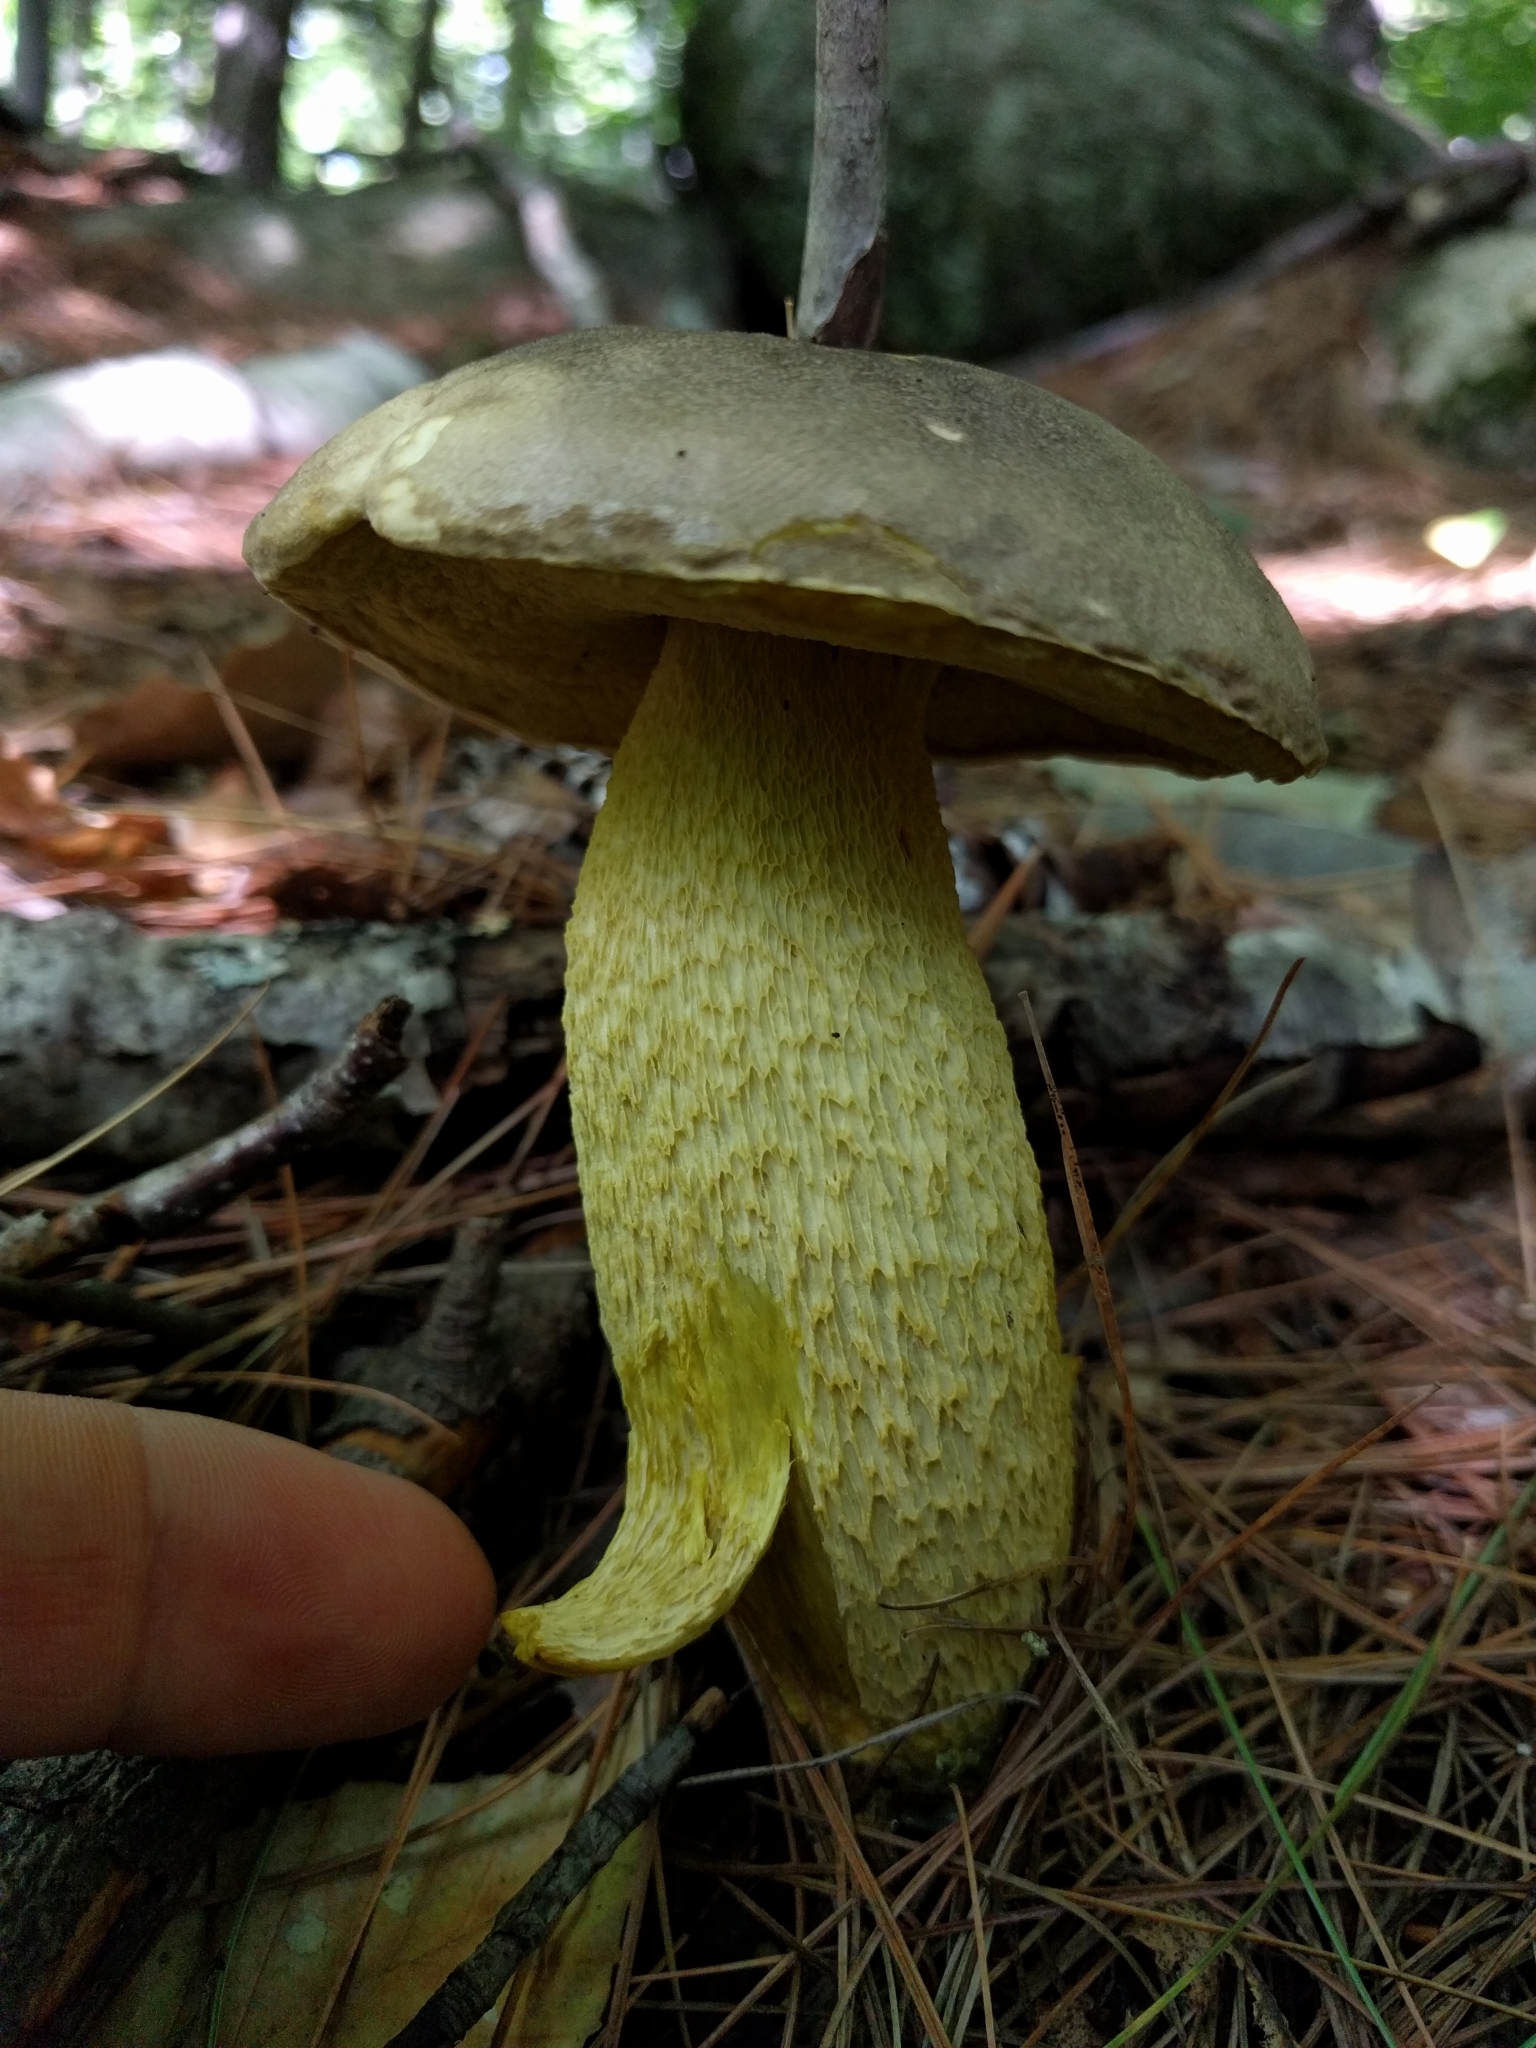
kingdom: Fungi
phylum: Basidiomycota
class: Agaricomycetes
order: Boletales
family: Boletaceae
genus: Retiboletus
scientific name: Retiboletus ornatipes
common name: Ornate-stalked bolete
